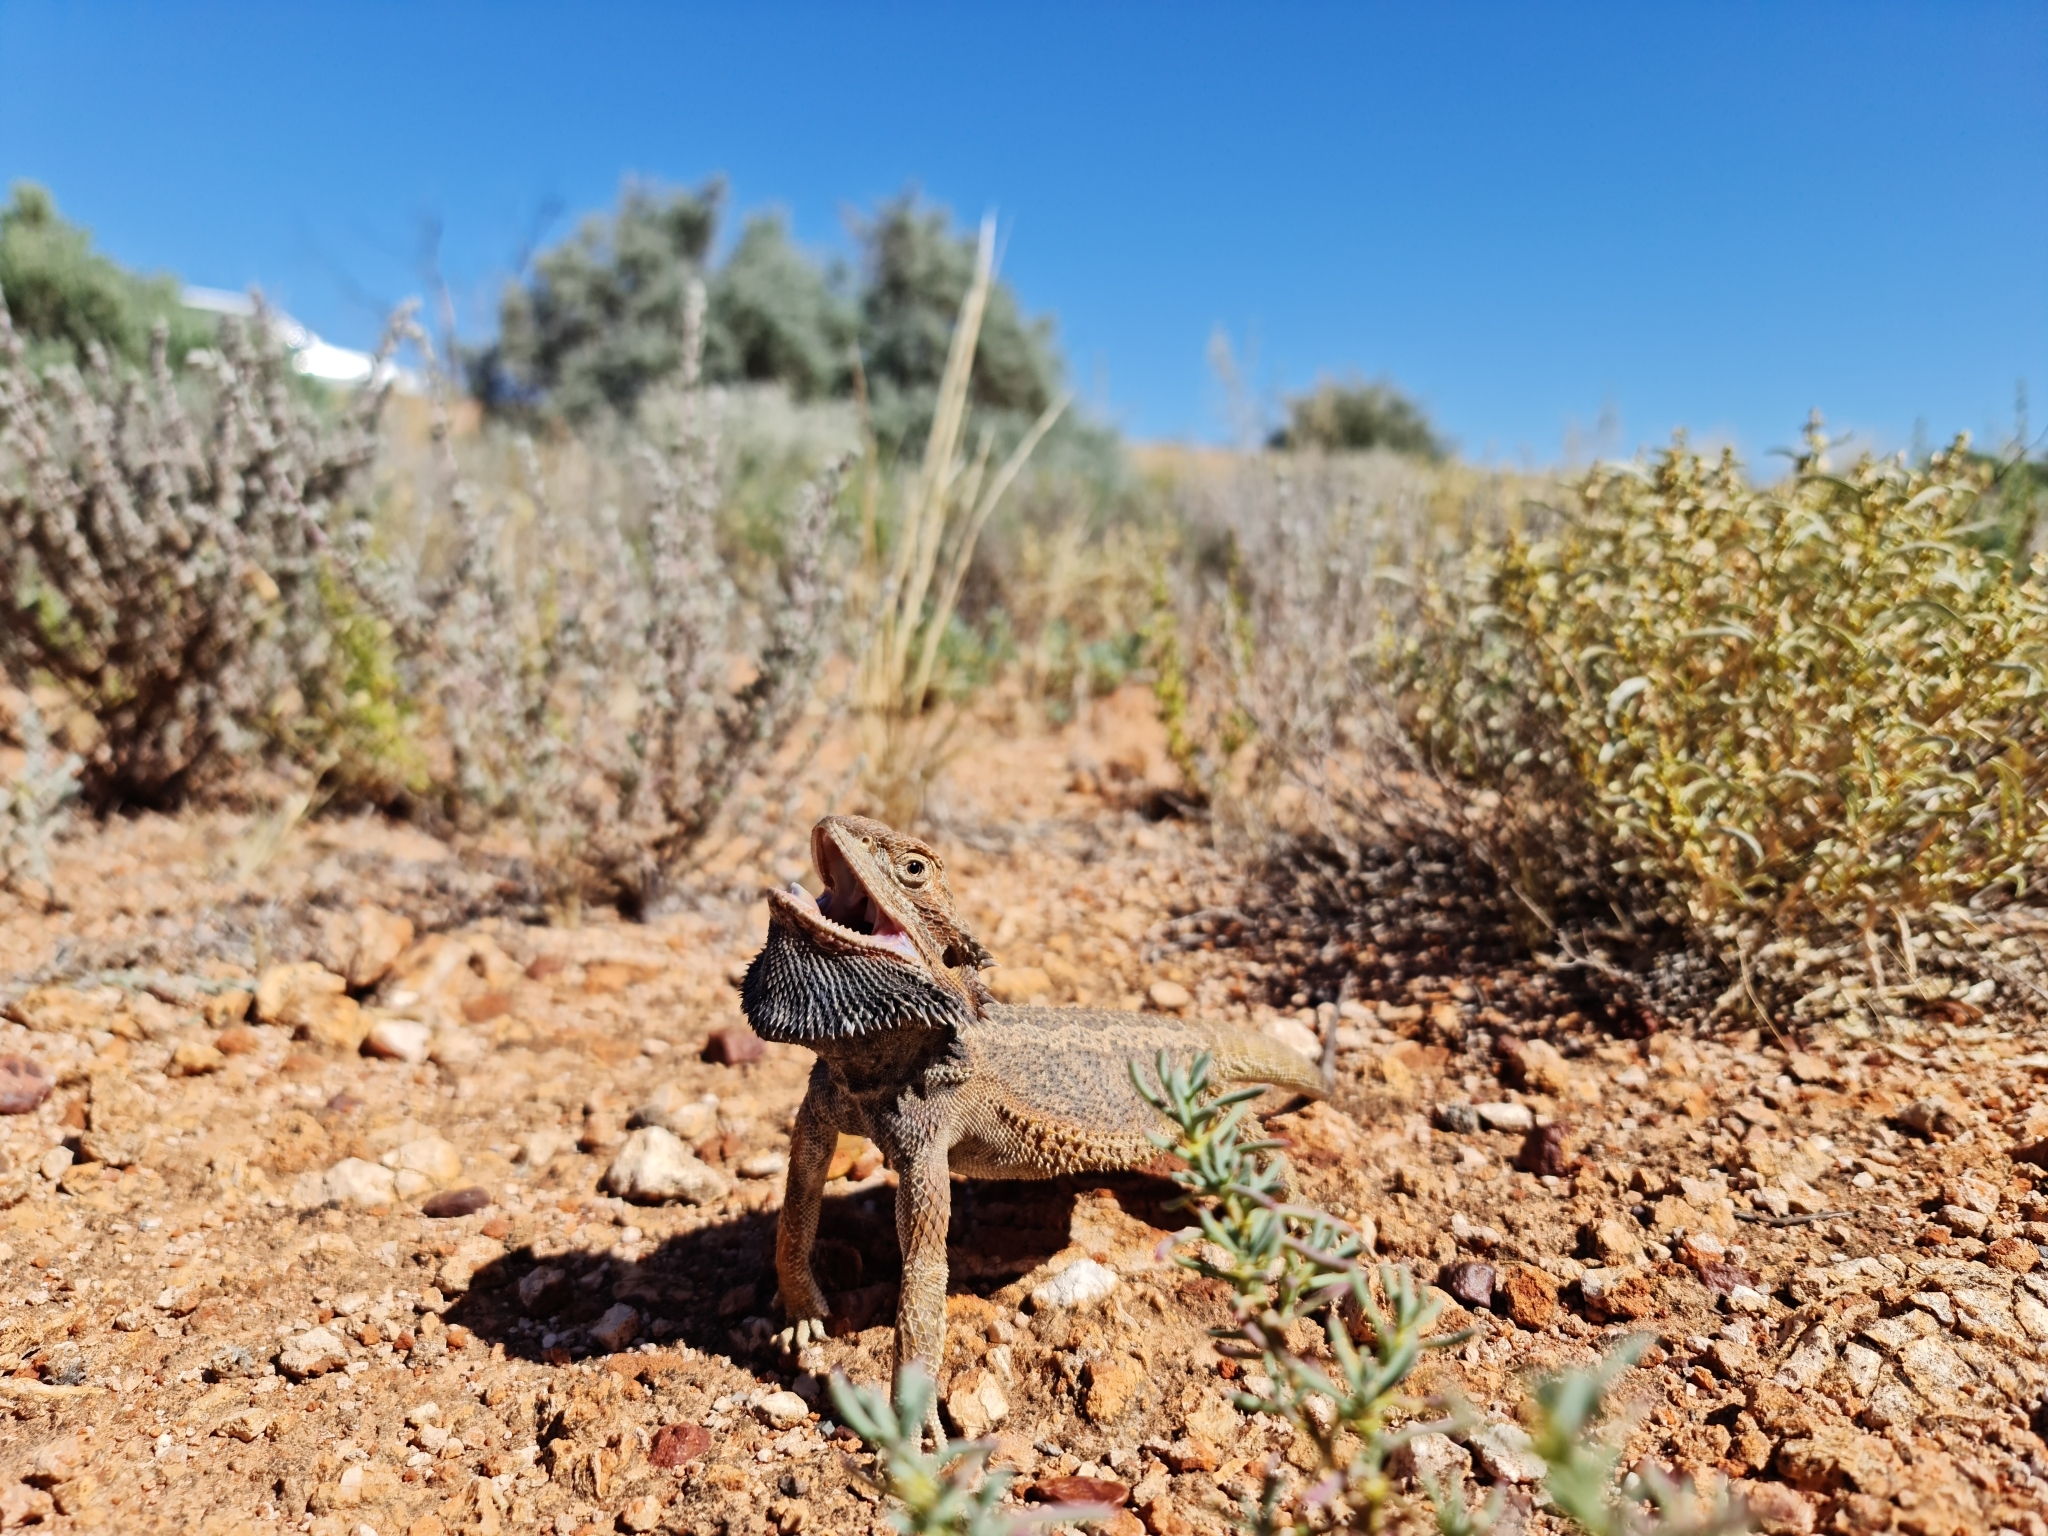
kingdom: Animalia
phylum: Chordata
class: Squamata
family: Agamidae
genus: Pogona
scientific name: Pogona vitticeps
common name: Central bearded dragon
